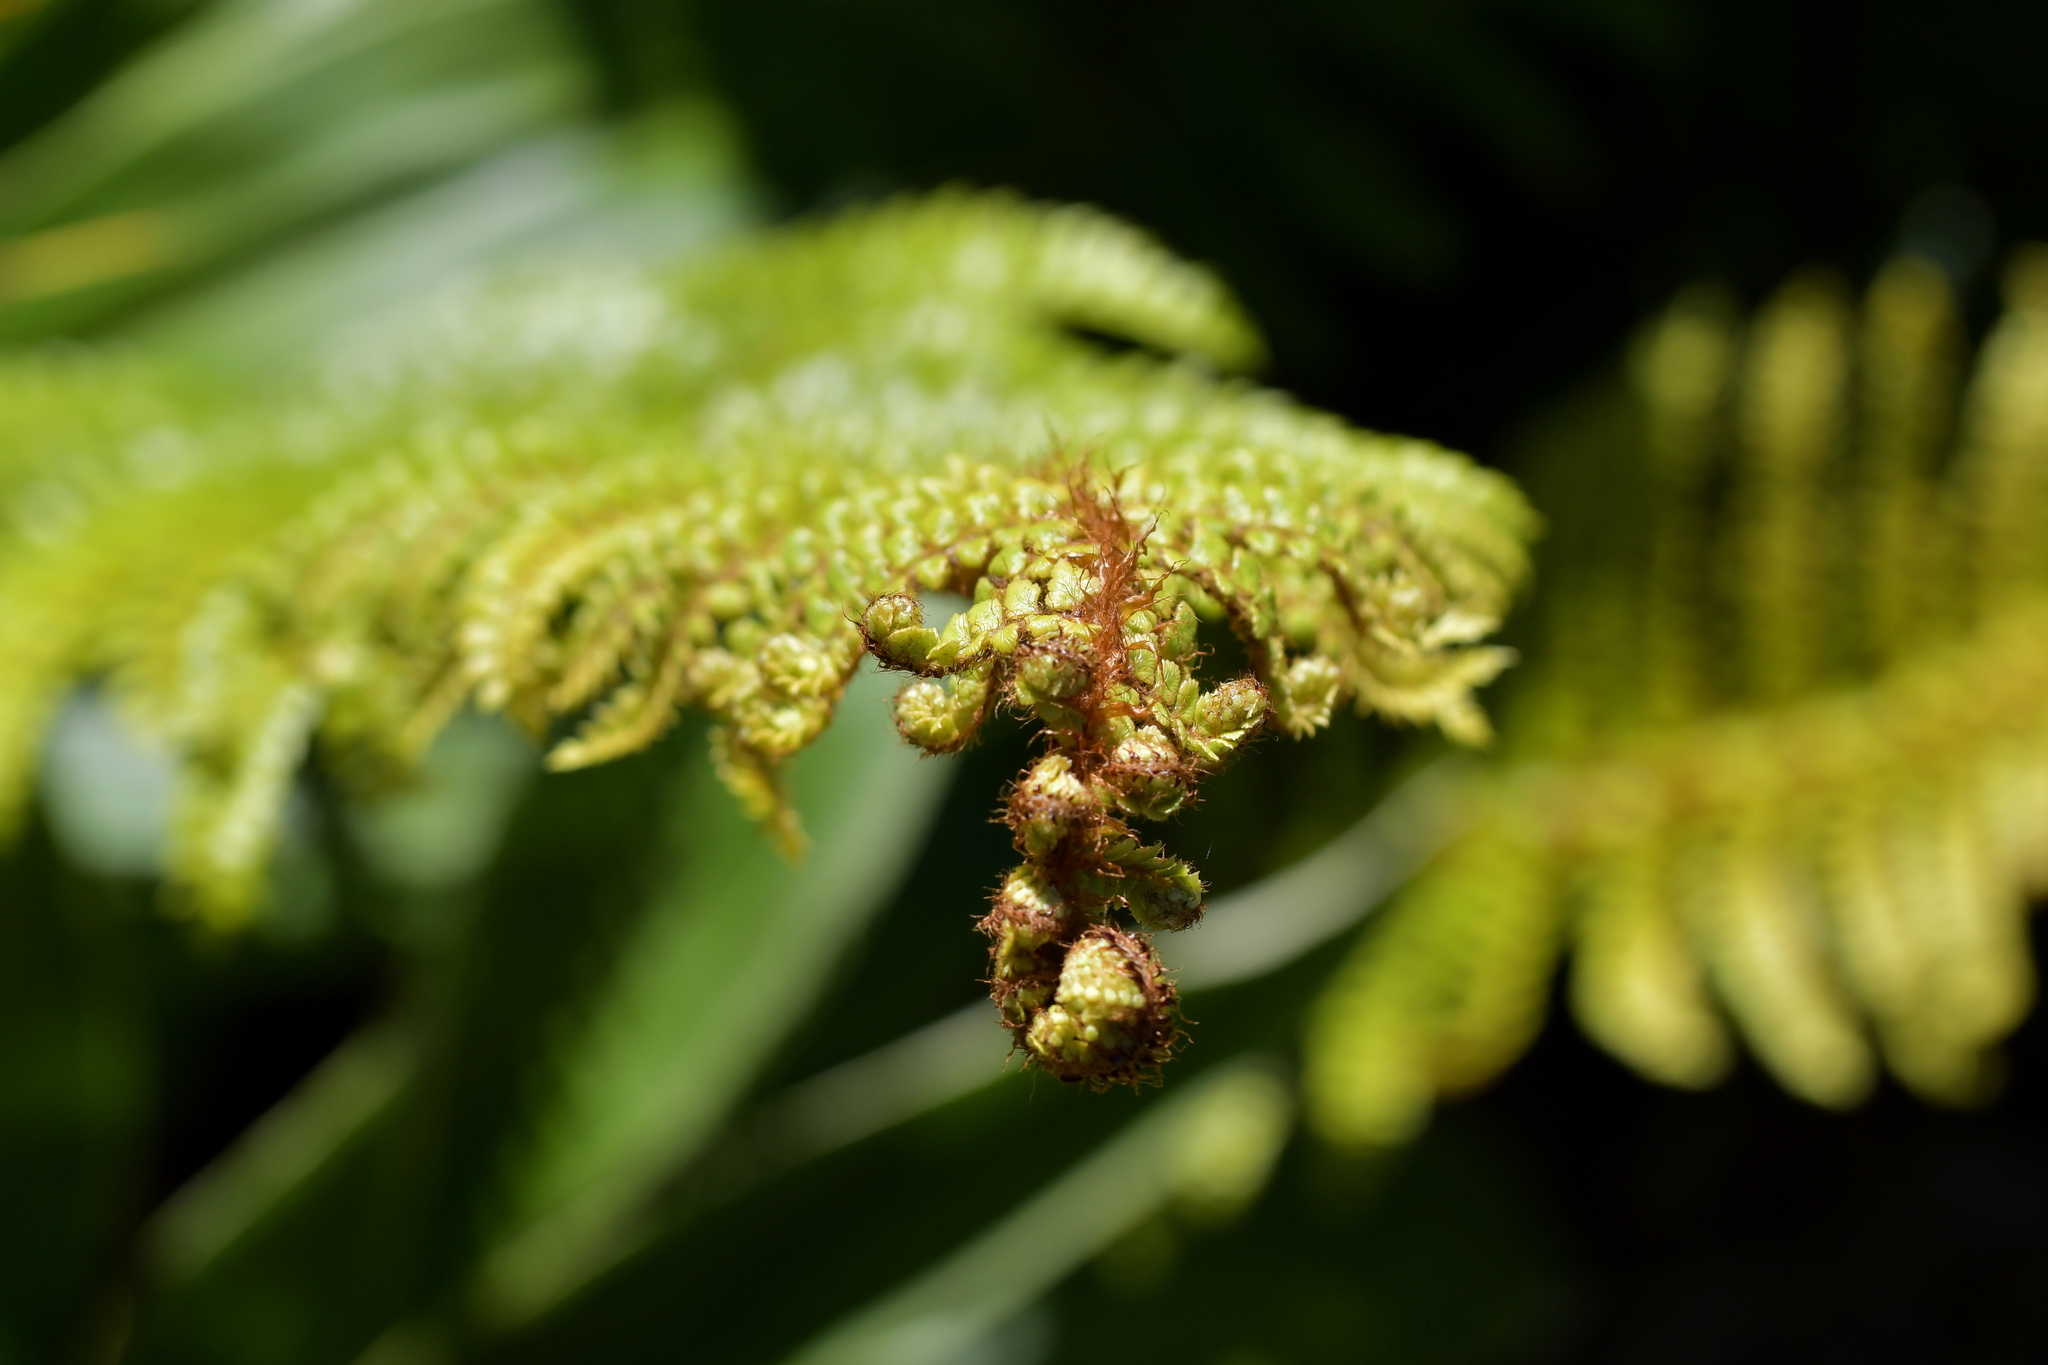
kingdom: Plantae
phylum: Tracheophyta
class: Polypodiopsida
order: Polypodiales
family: Dryopteridaceae
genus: Polystichum
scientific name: Polystichum vestitum
